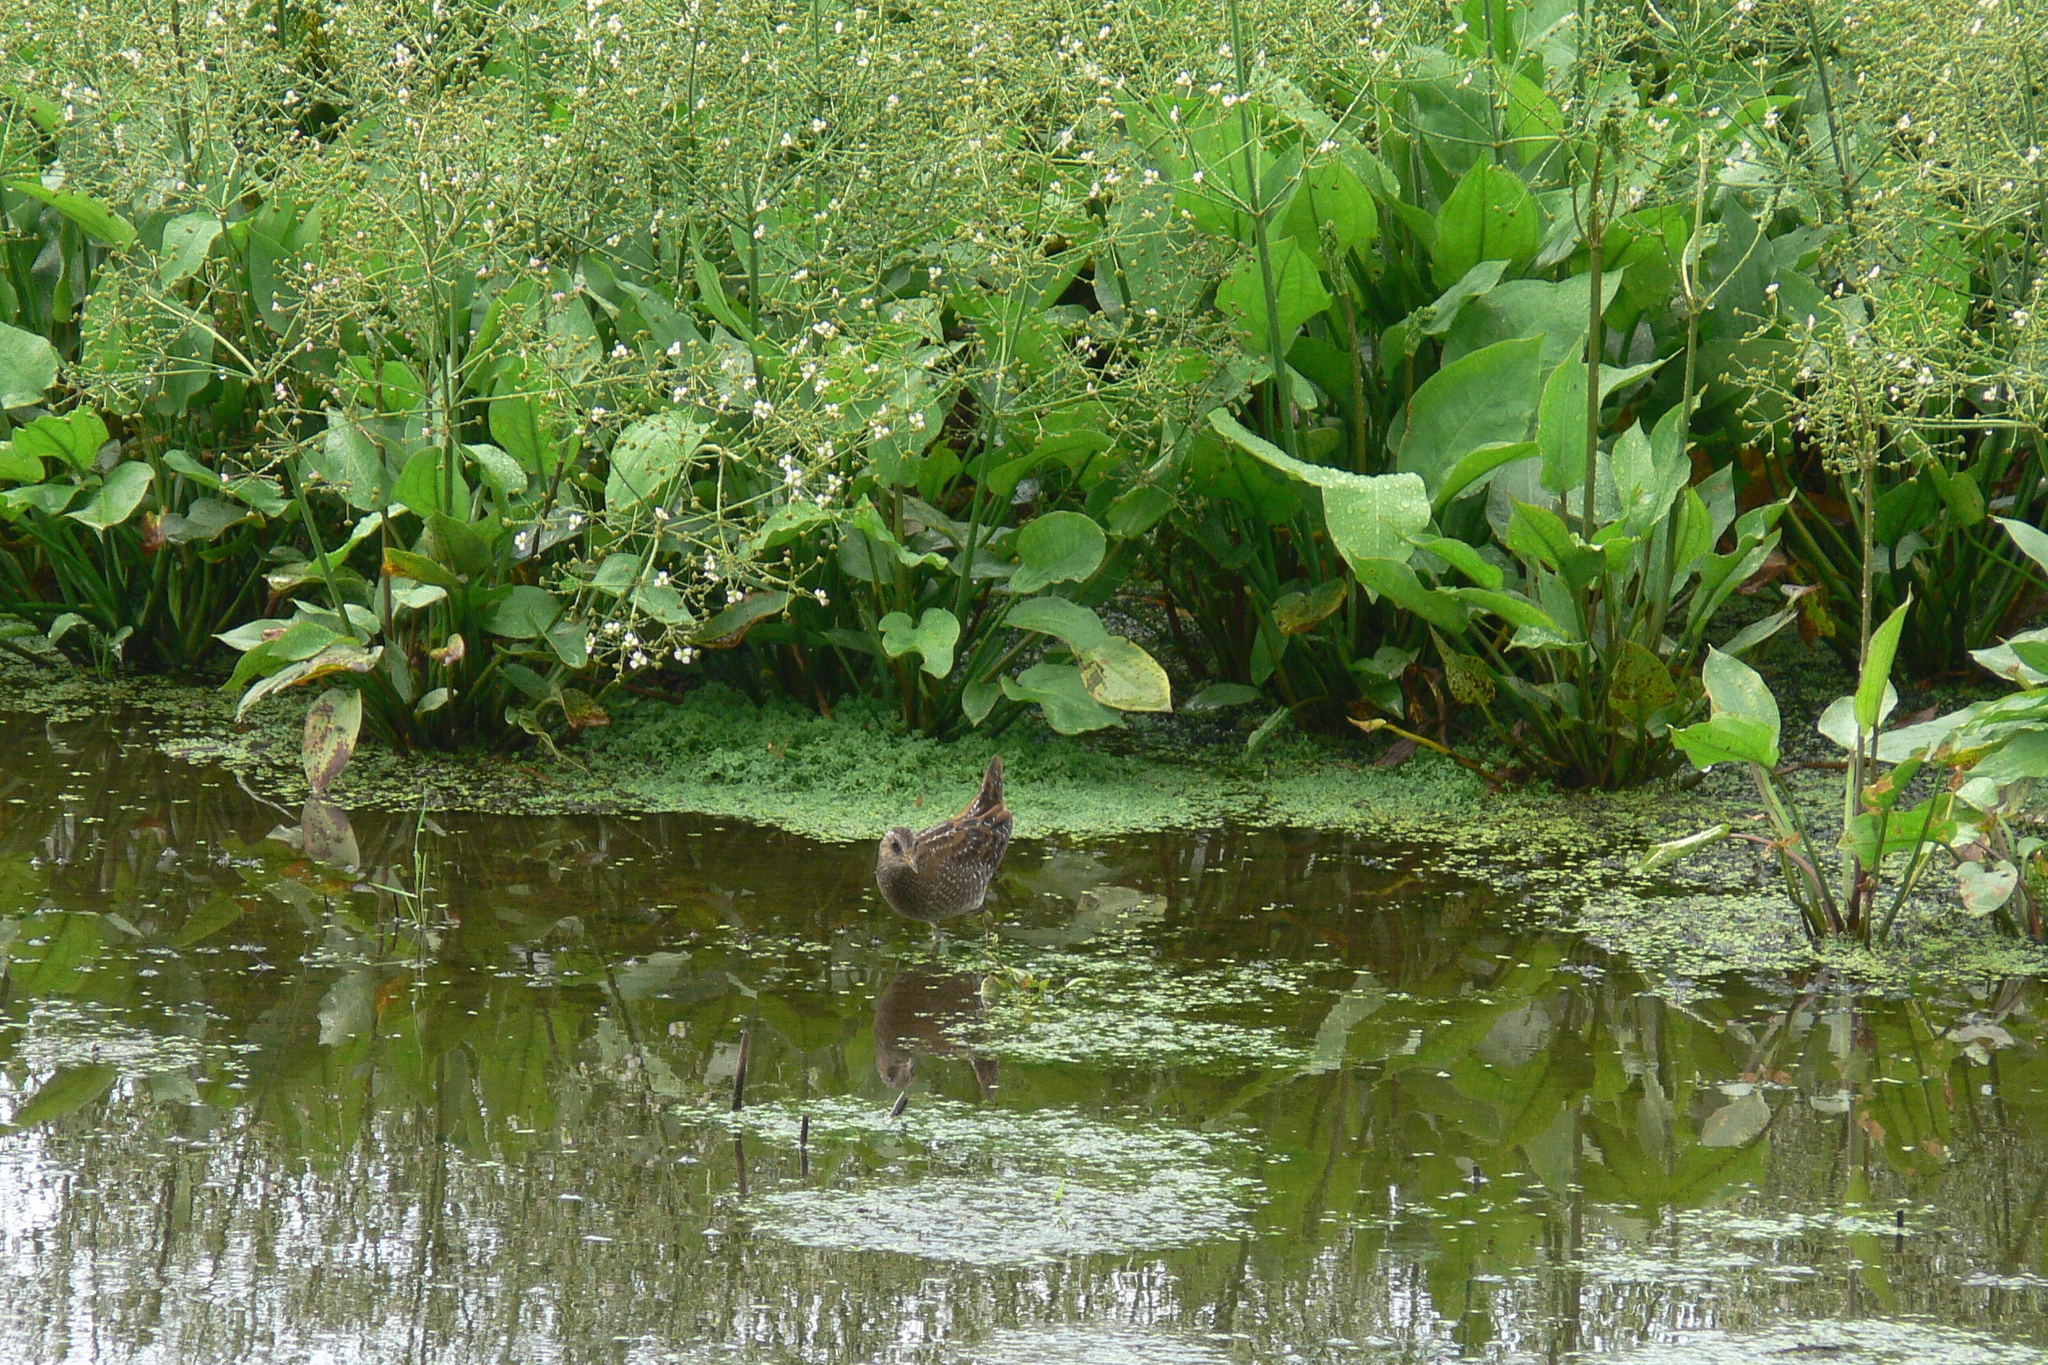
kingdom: Animalia
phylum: Chordata
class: Aves
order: Gruiformes
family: Rallidae
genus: Porzana
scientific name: Porzana porzana
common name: Spotted crake
